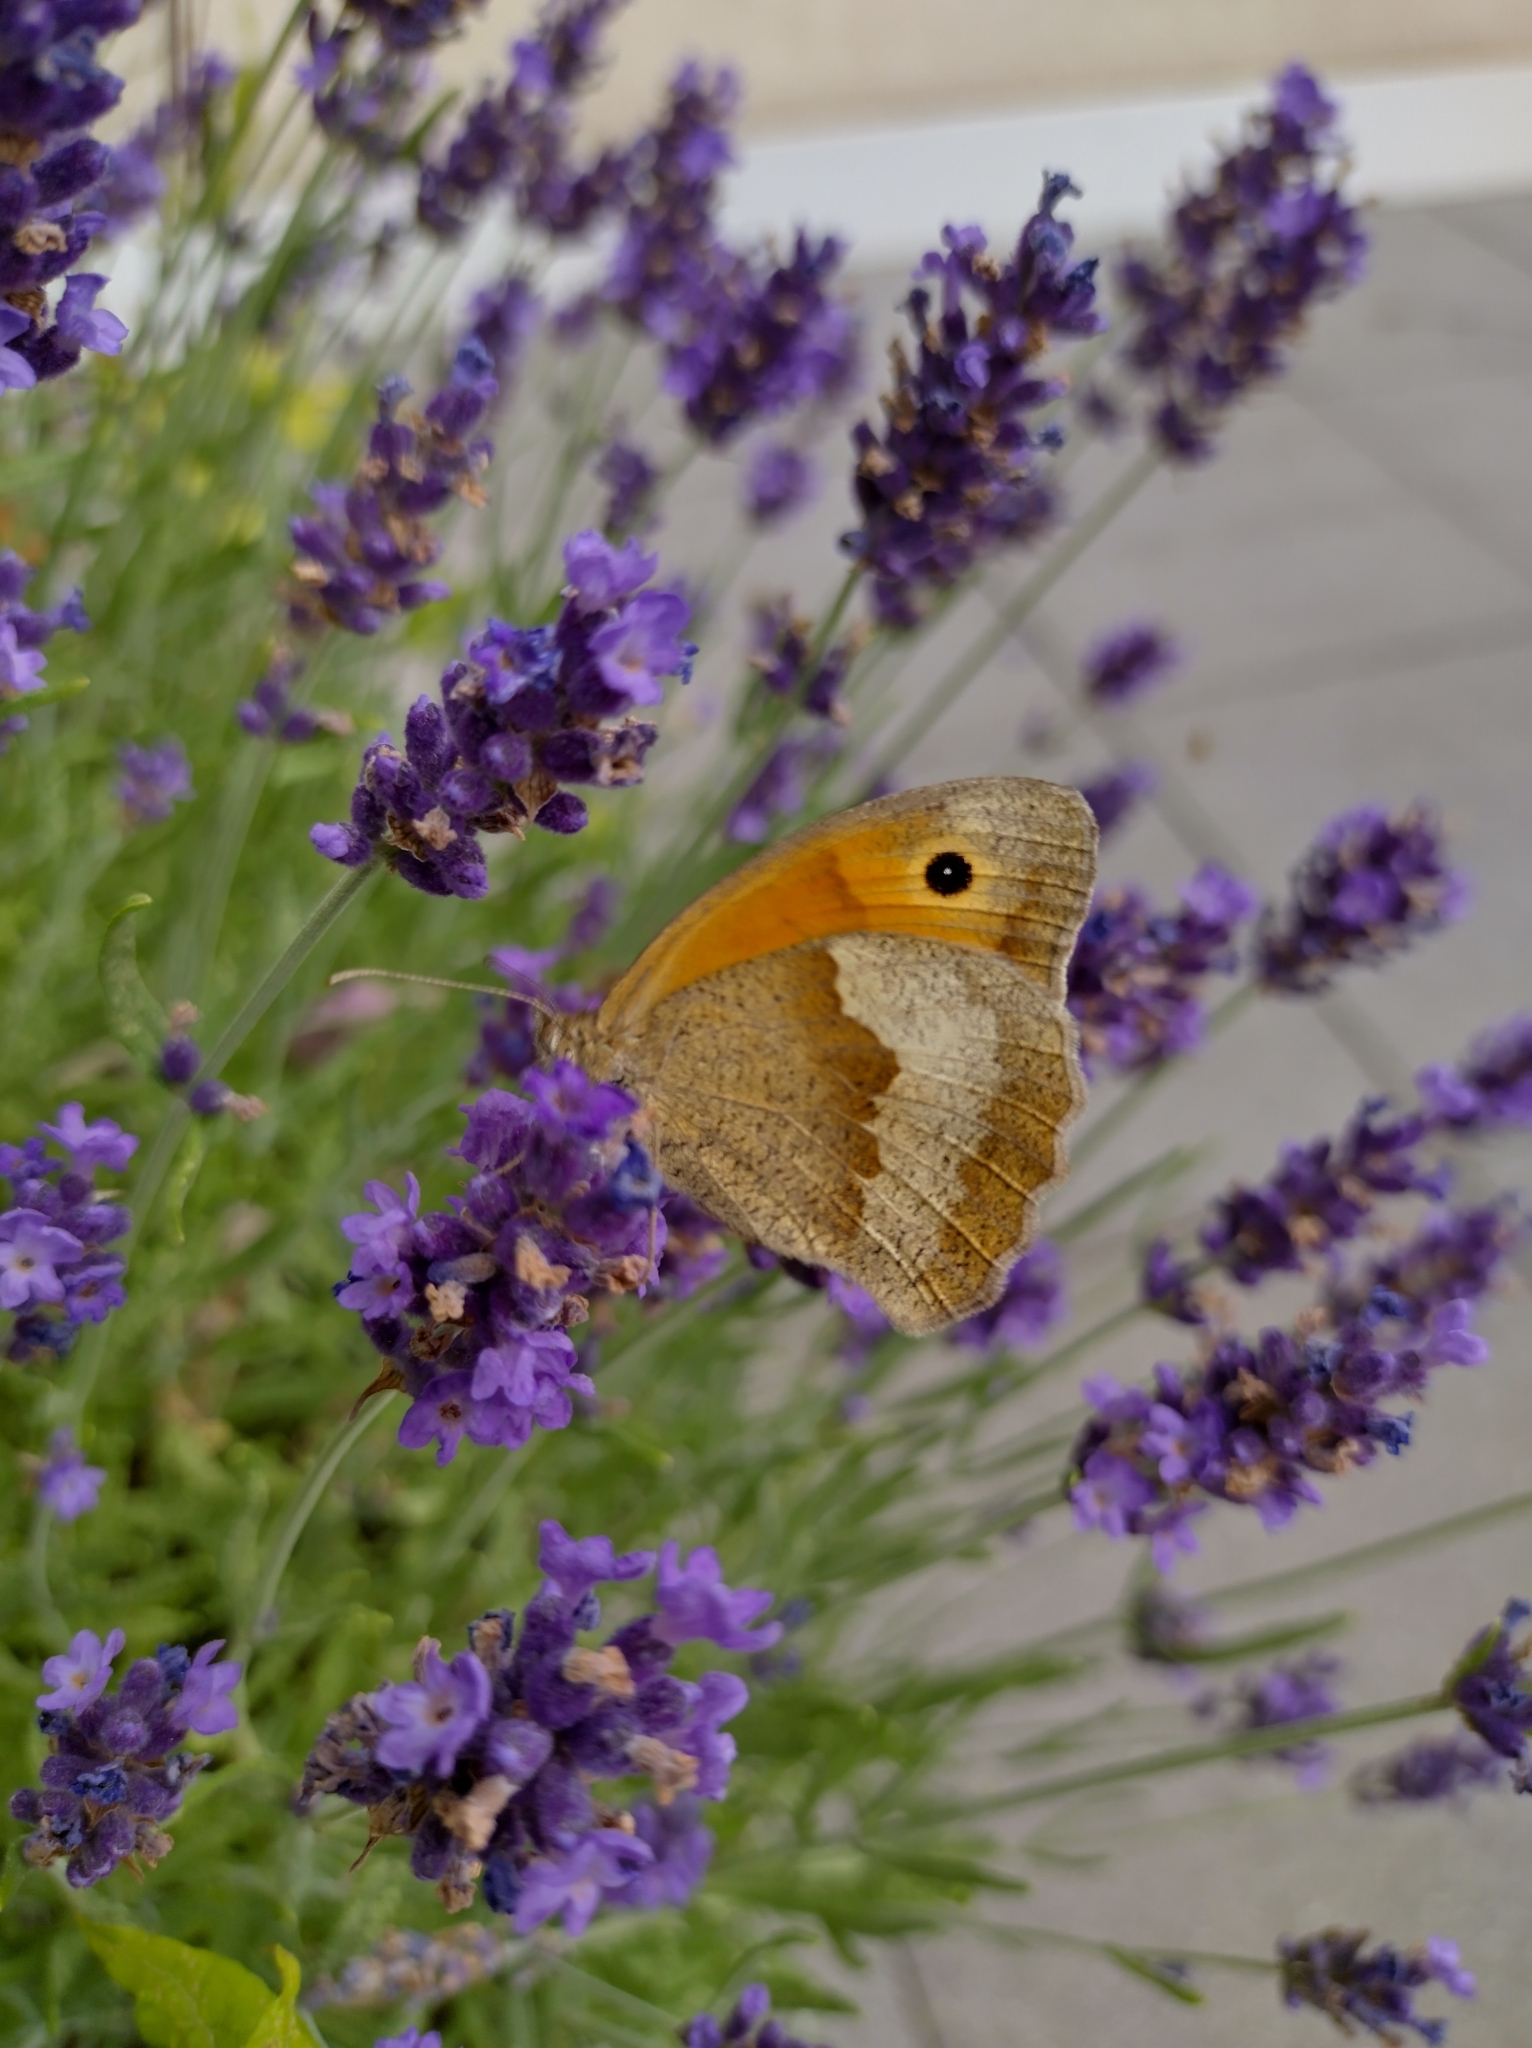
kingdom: Animalia
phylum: Arthropoda
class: Insecta
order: Lepidoptera
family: Nymphalidae
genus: Maniola
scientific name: Maniola jurtina
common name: Meadow brown
